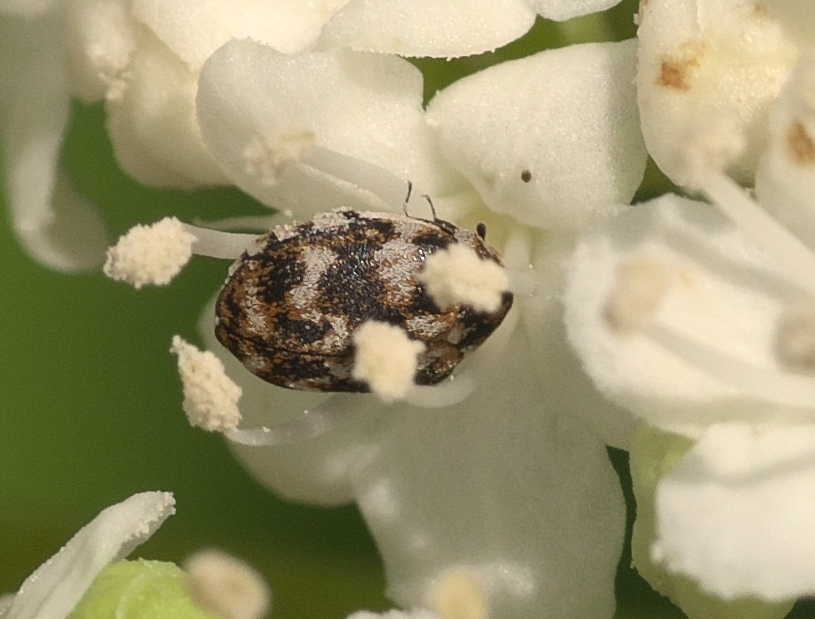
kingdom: Animalia
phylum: Arthropoda
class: Insecta
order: Coleoptera
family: Dermestidae
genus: Anthrenus
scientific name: Anthrenus verbasci
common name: Varied carpet beetle
